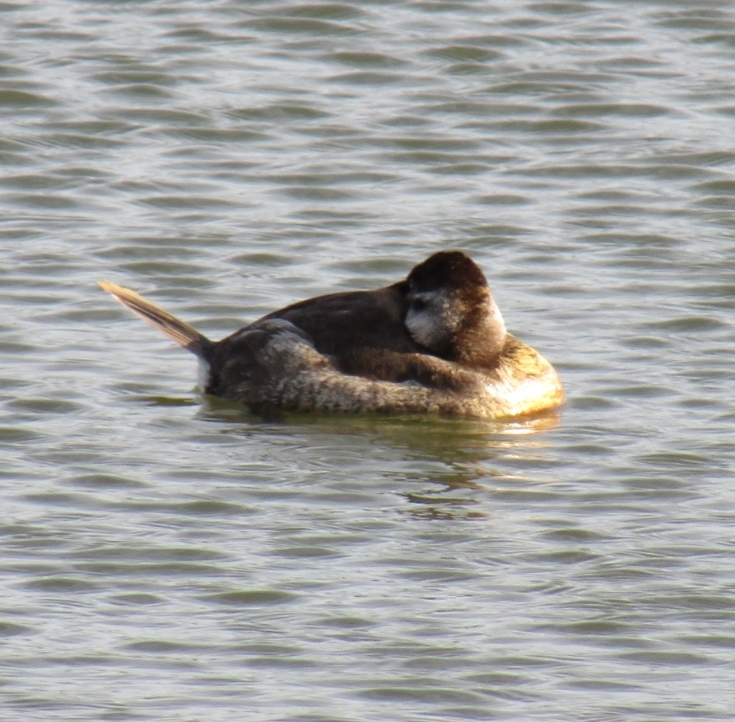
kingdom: Animalia
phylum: Chordata
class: Aves
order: Anseriformes
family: Anatidae
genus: Oxyura
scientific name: Oxyura jamaicensis
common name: Ruddy duck
